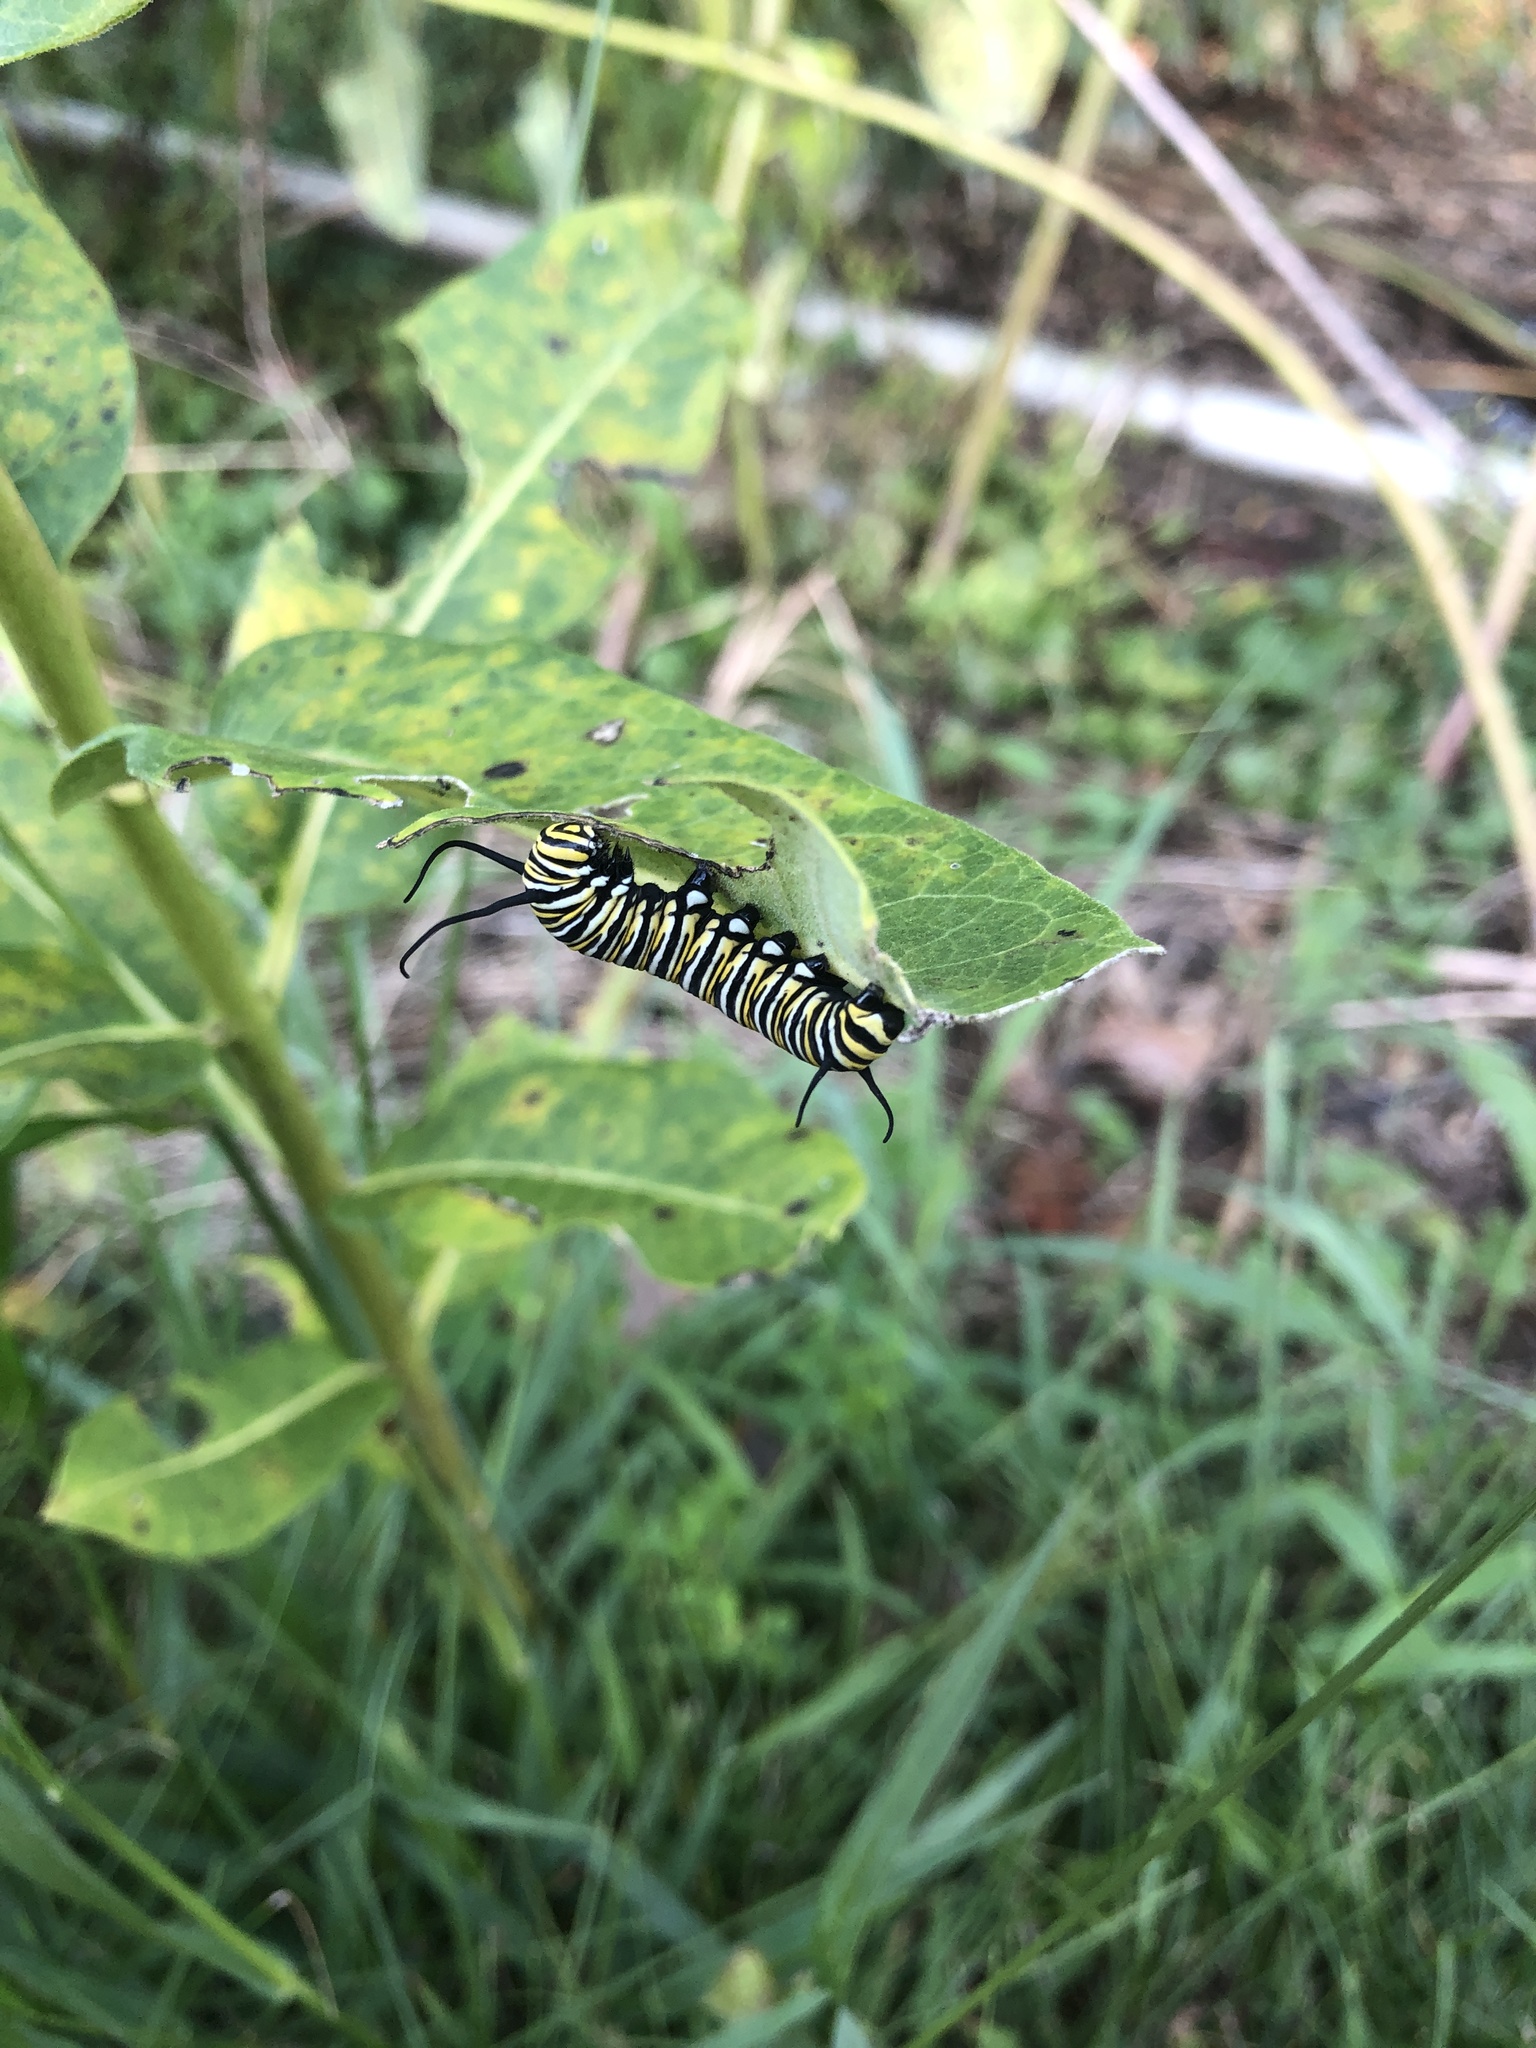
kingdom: Animalia
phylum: Arthropoda
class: Insecta
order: Lepidoptera
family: Nymphalidae
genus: Danaus
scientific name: Danaus plexippus
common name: Monarch
